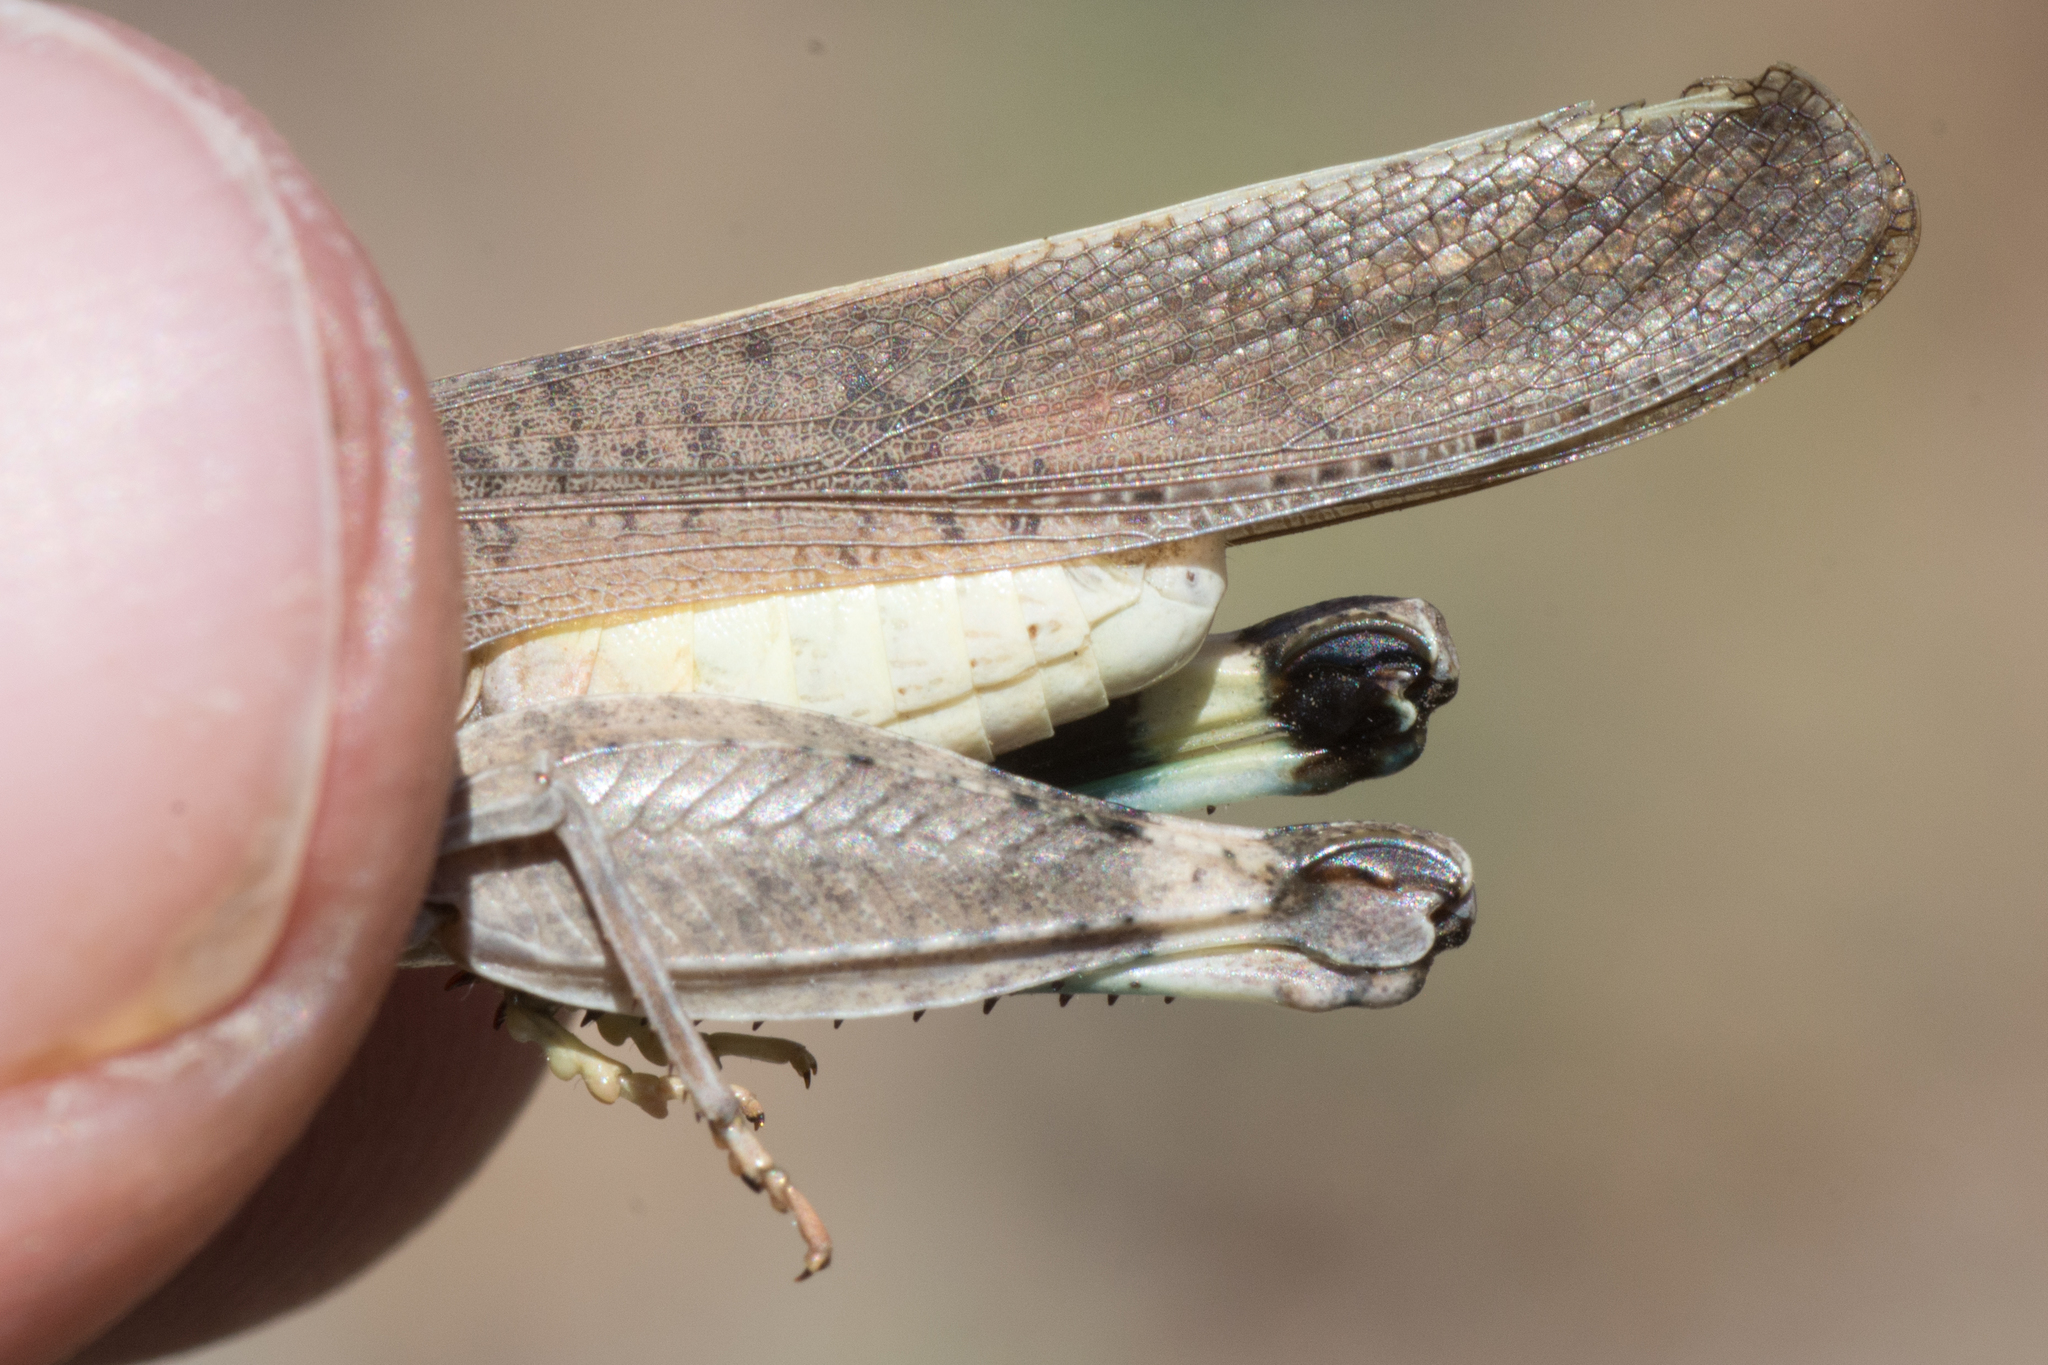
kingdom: Animalia
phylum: Arthropoda
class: Insecta
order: Orthoptera
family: Acrididae
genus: Arphia
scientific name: Arphia conspersa
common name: Speckle-winged rangeland grasshopper
